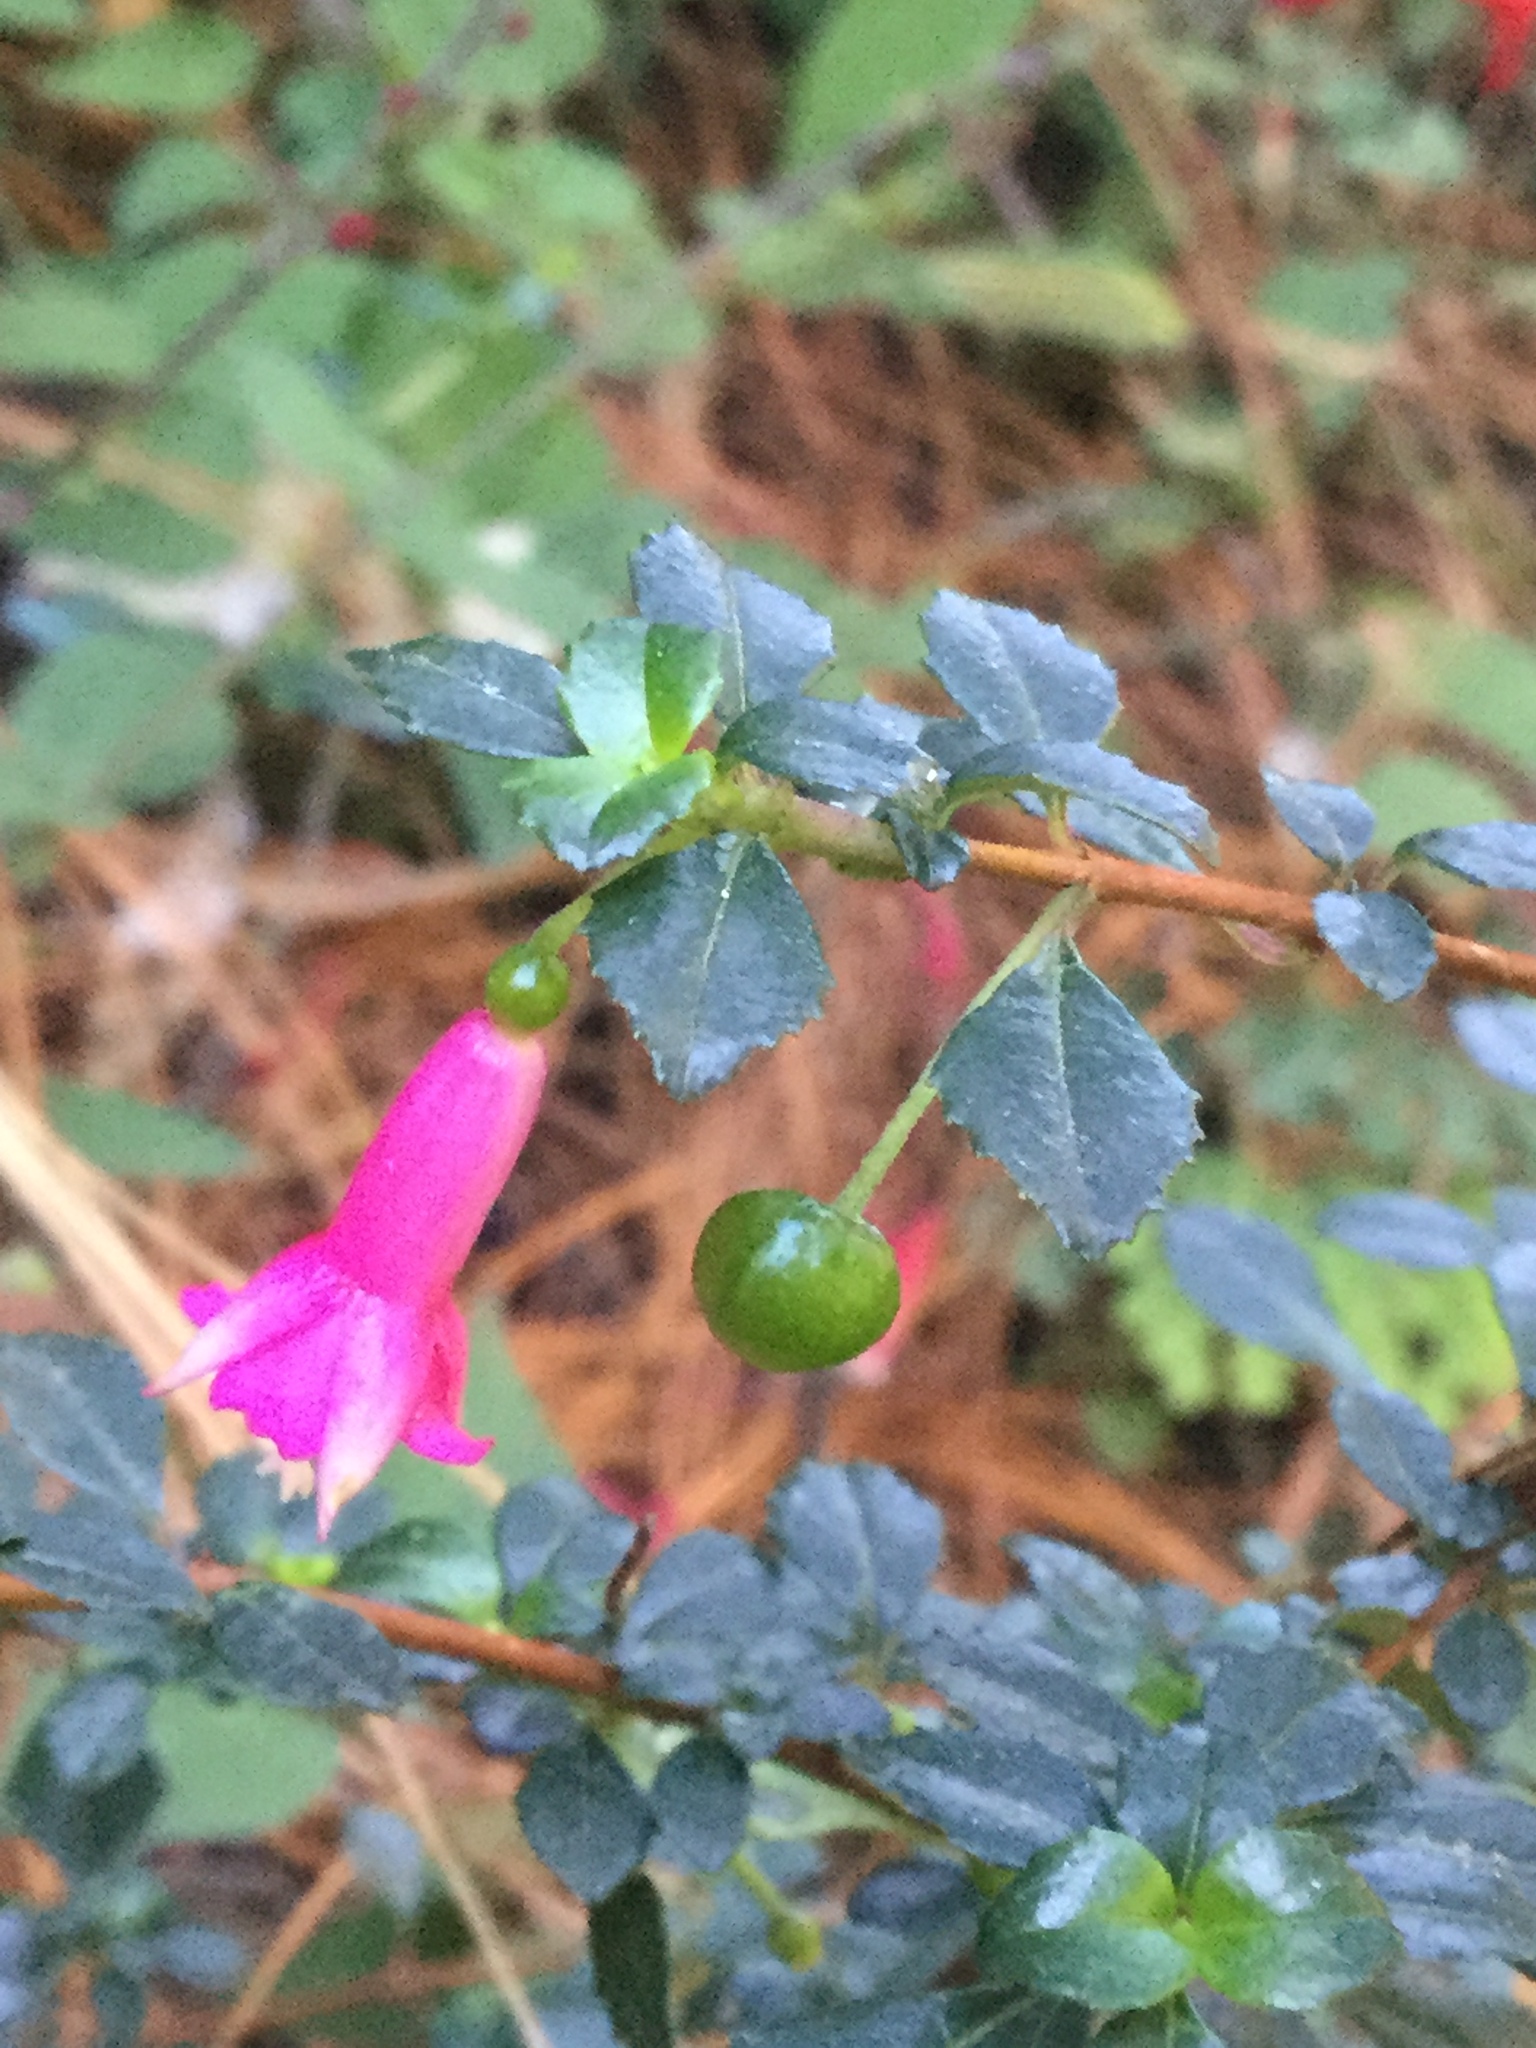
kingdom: Plantae
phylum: Tracheophyta
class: Magnoliopsida
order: Myrtales
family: Onagraceae
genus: Fuchsia
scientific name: Fuchsia microphylla
